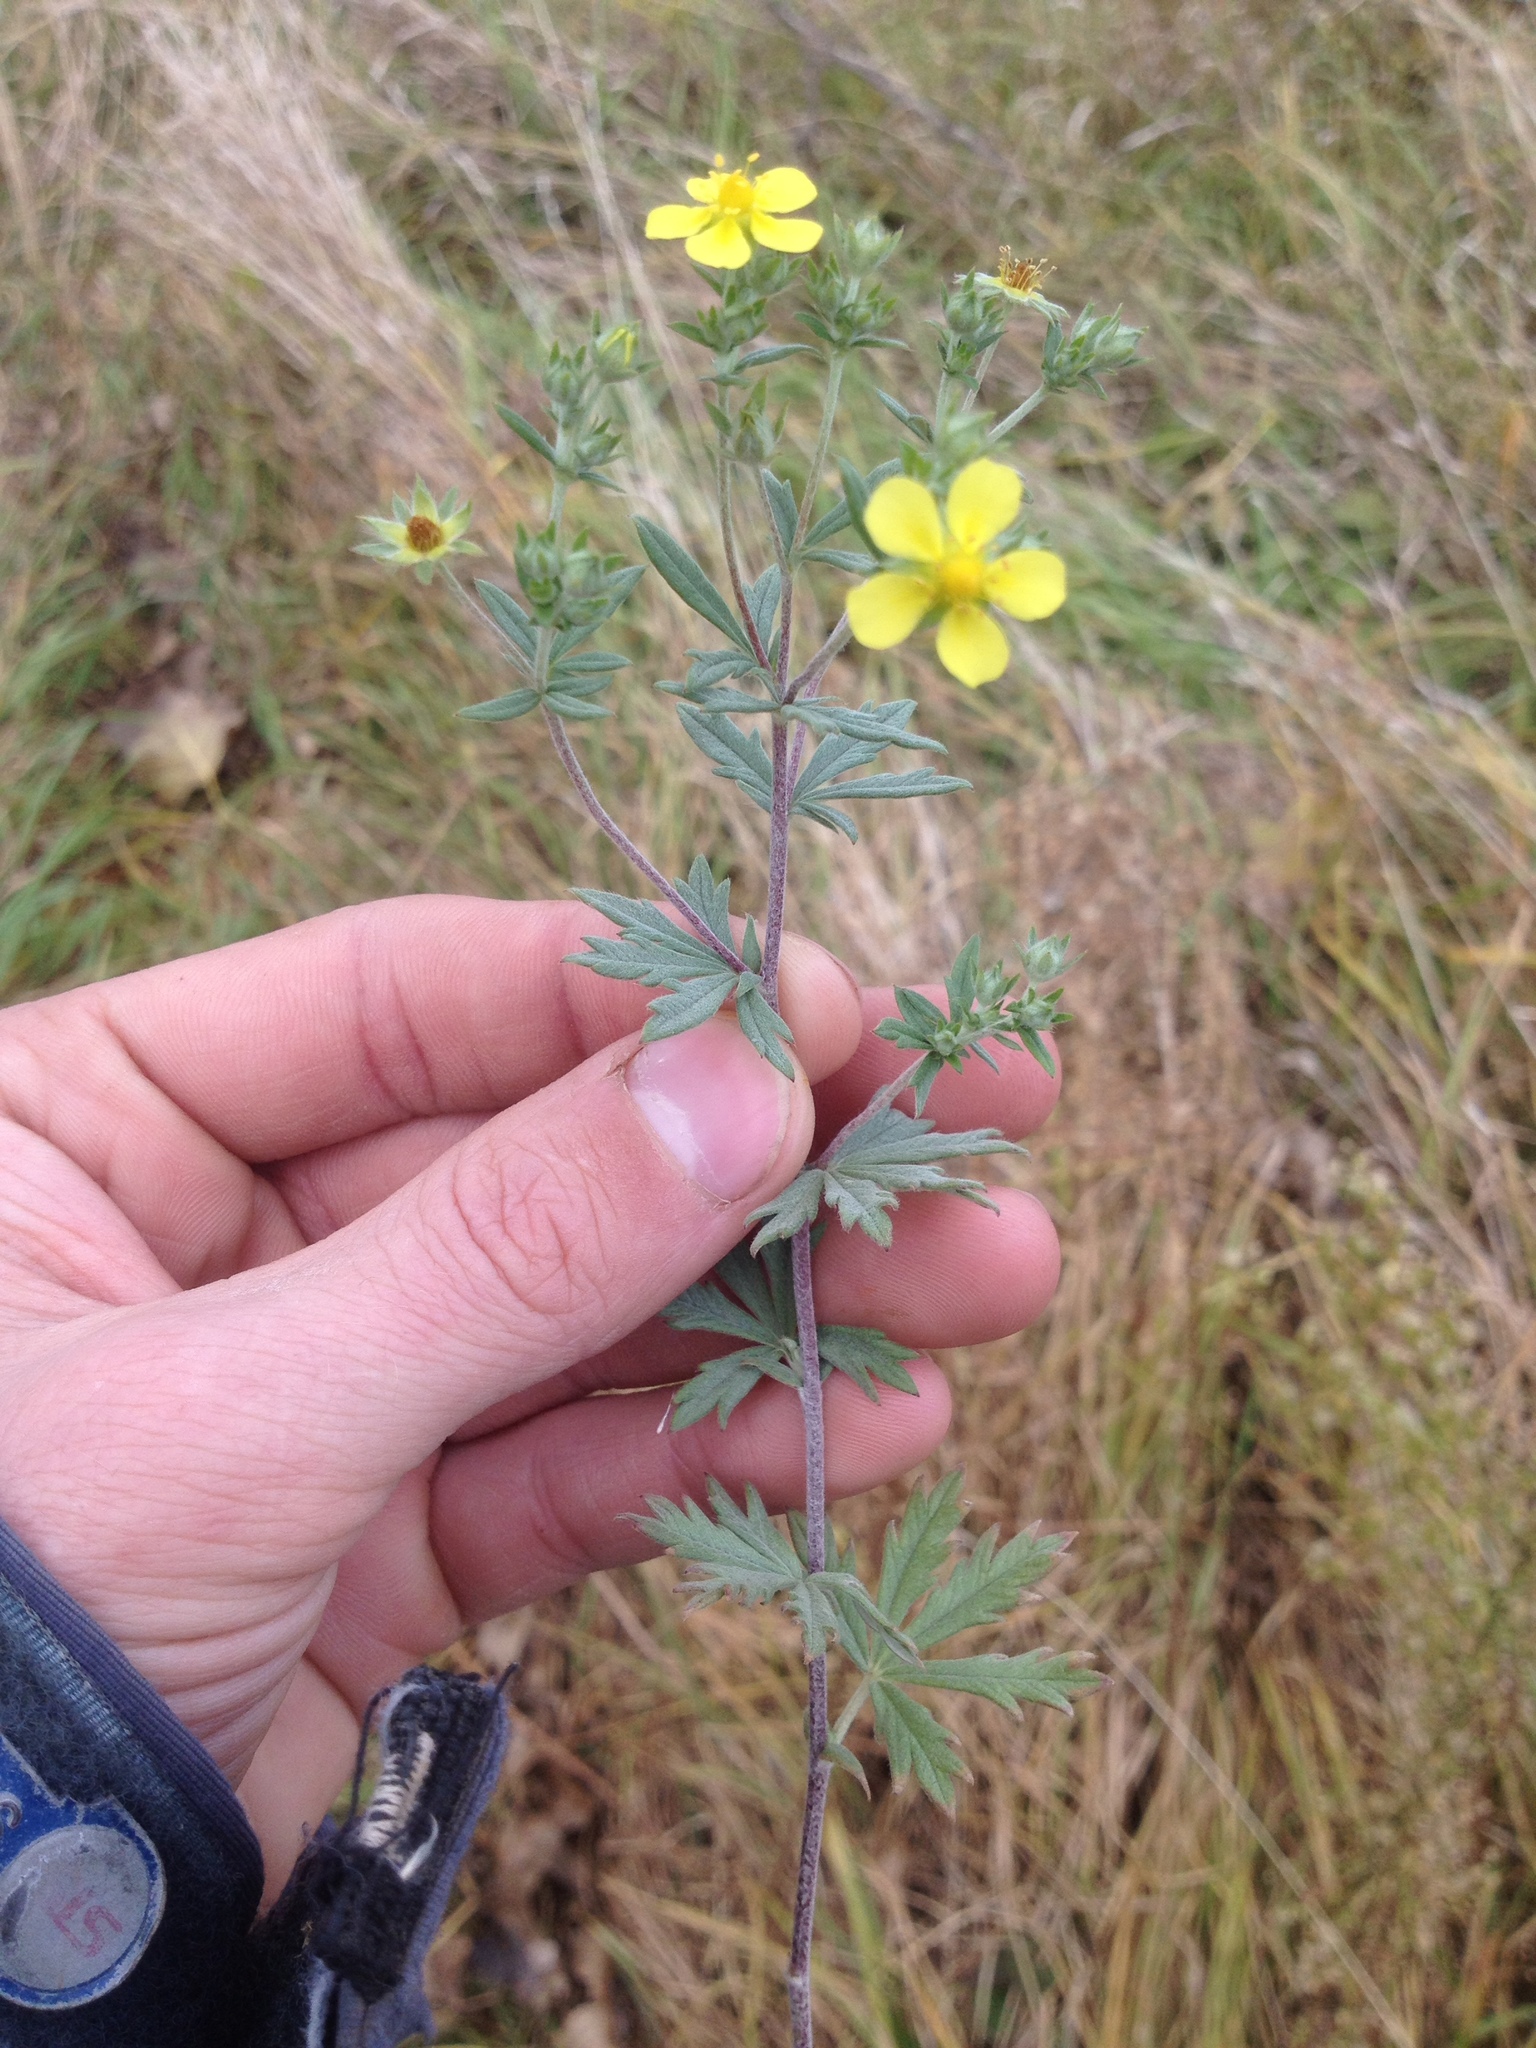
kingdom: Plantae
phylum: Tracheophyta
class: Magnoliopsida
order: Rosales
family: Rosaceae
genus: Potentilla
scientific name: Potentilla argentea
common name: Hoary cinquefoil
